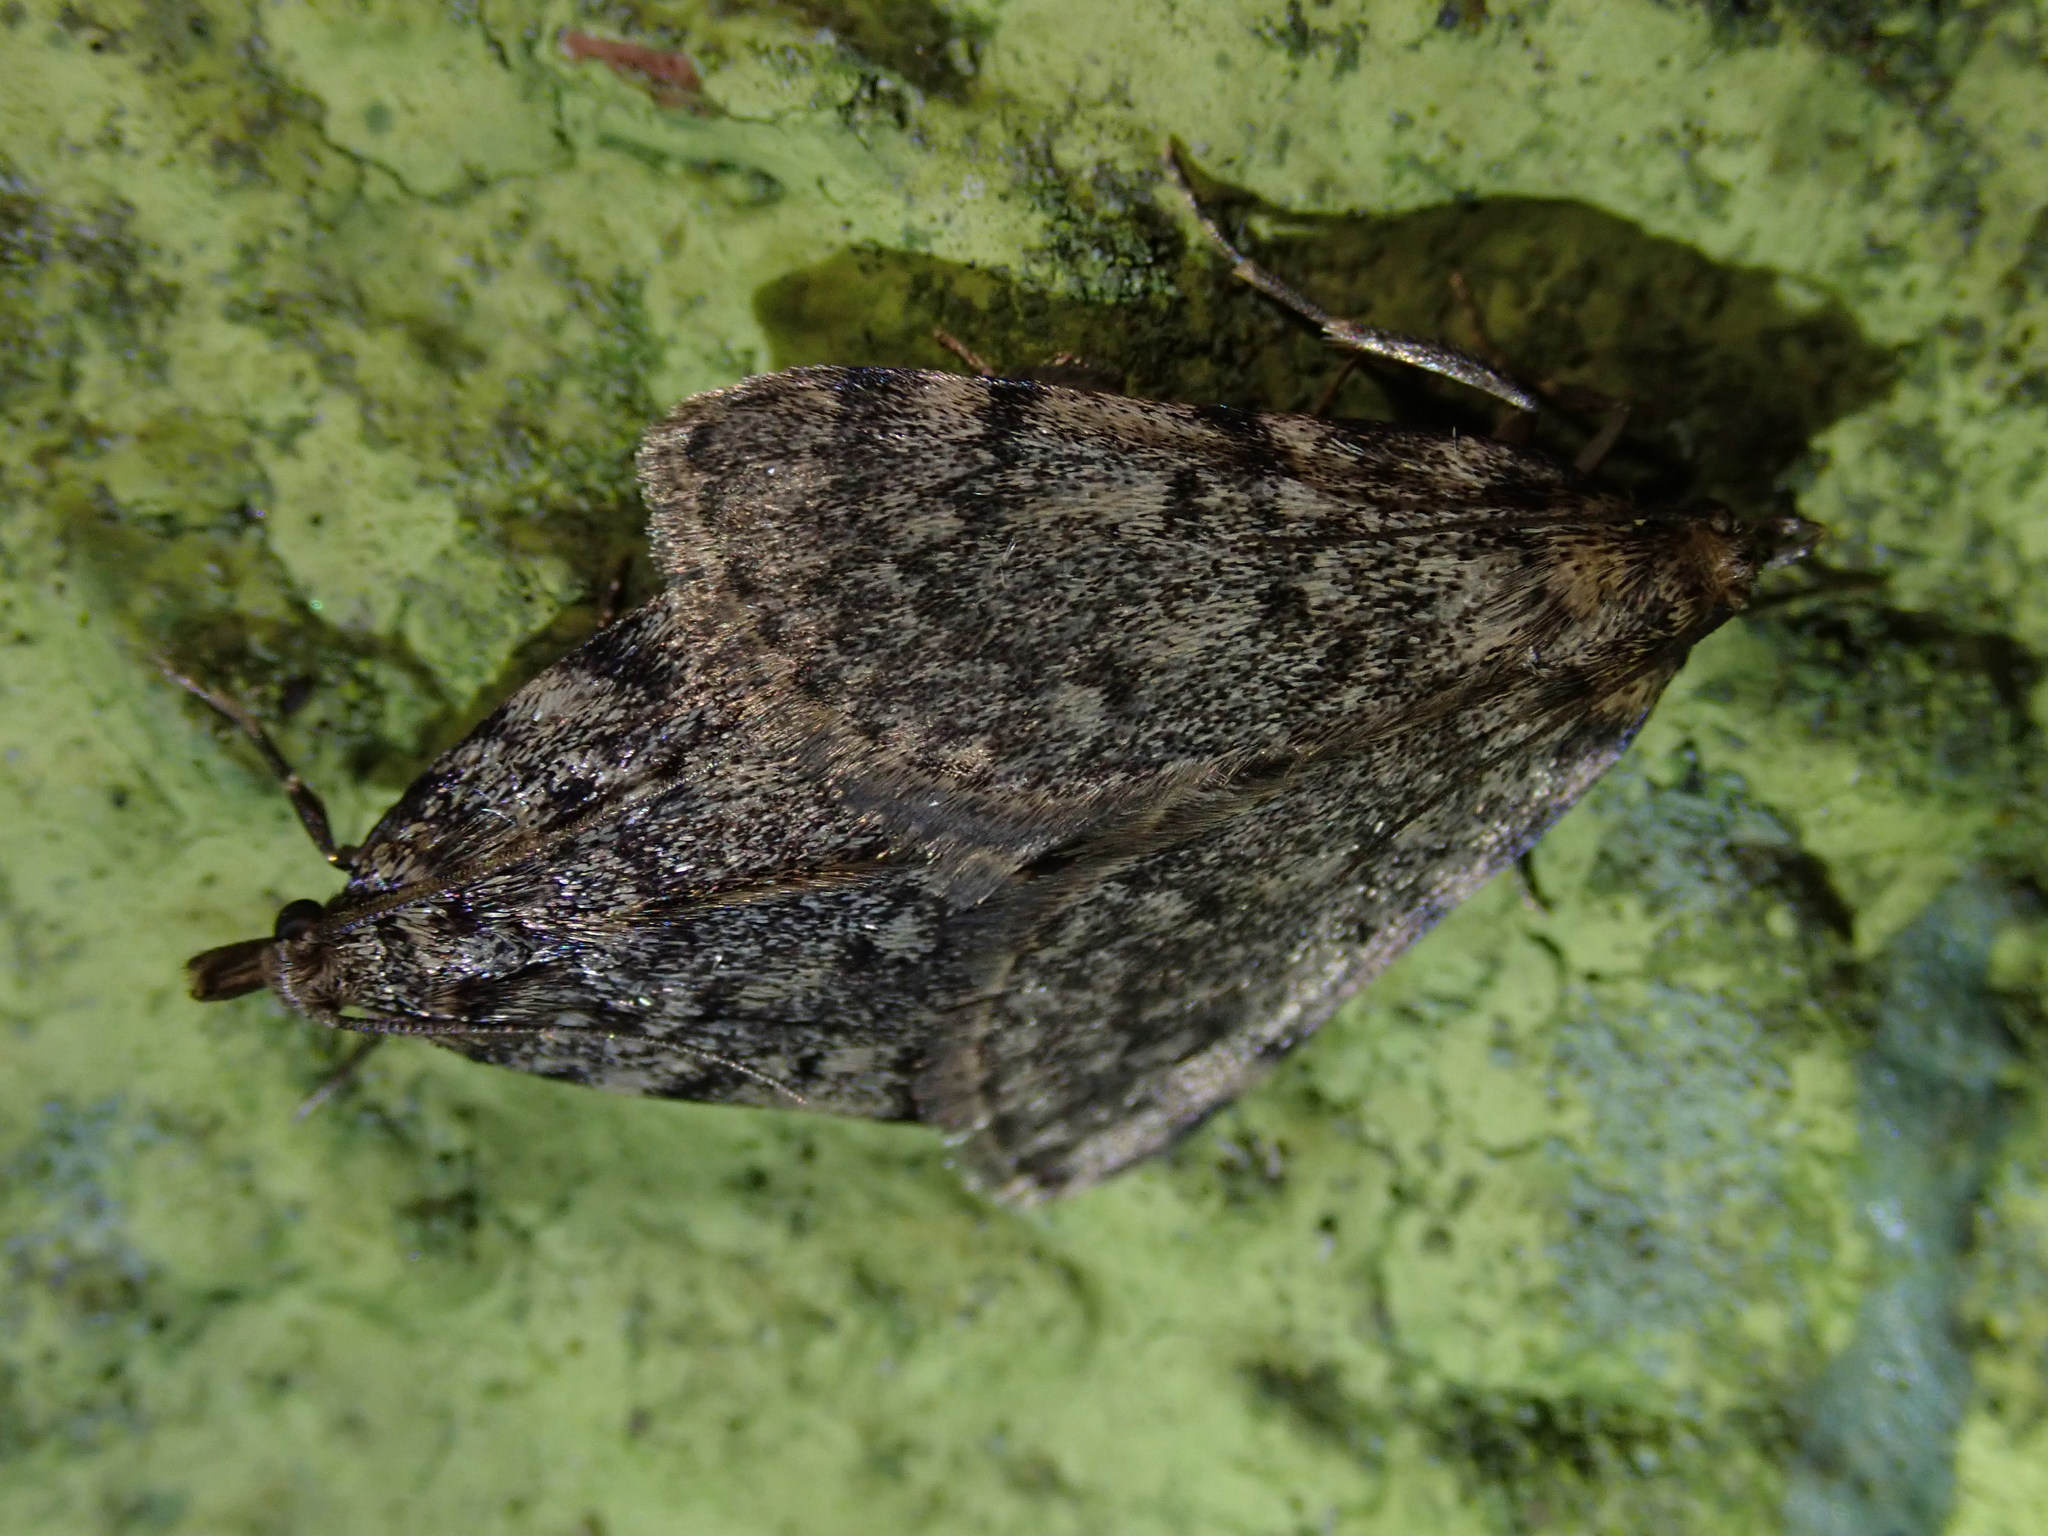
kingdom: Animalia
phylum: Arthropoda
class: Insecta
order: Lepidoptera
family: Pyralidae
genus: Aglossa
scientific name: Aglossa pinguinalis
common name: Large tabby
